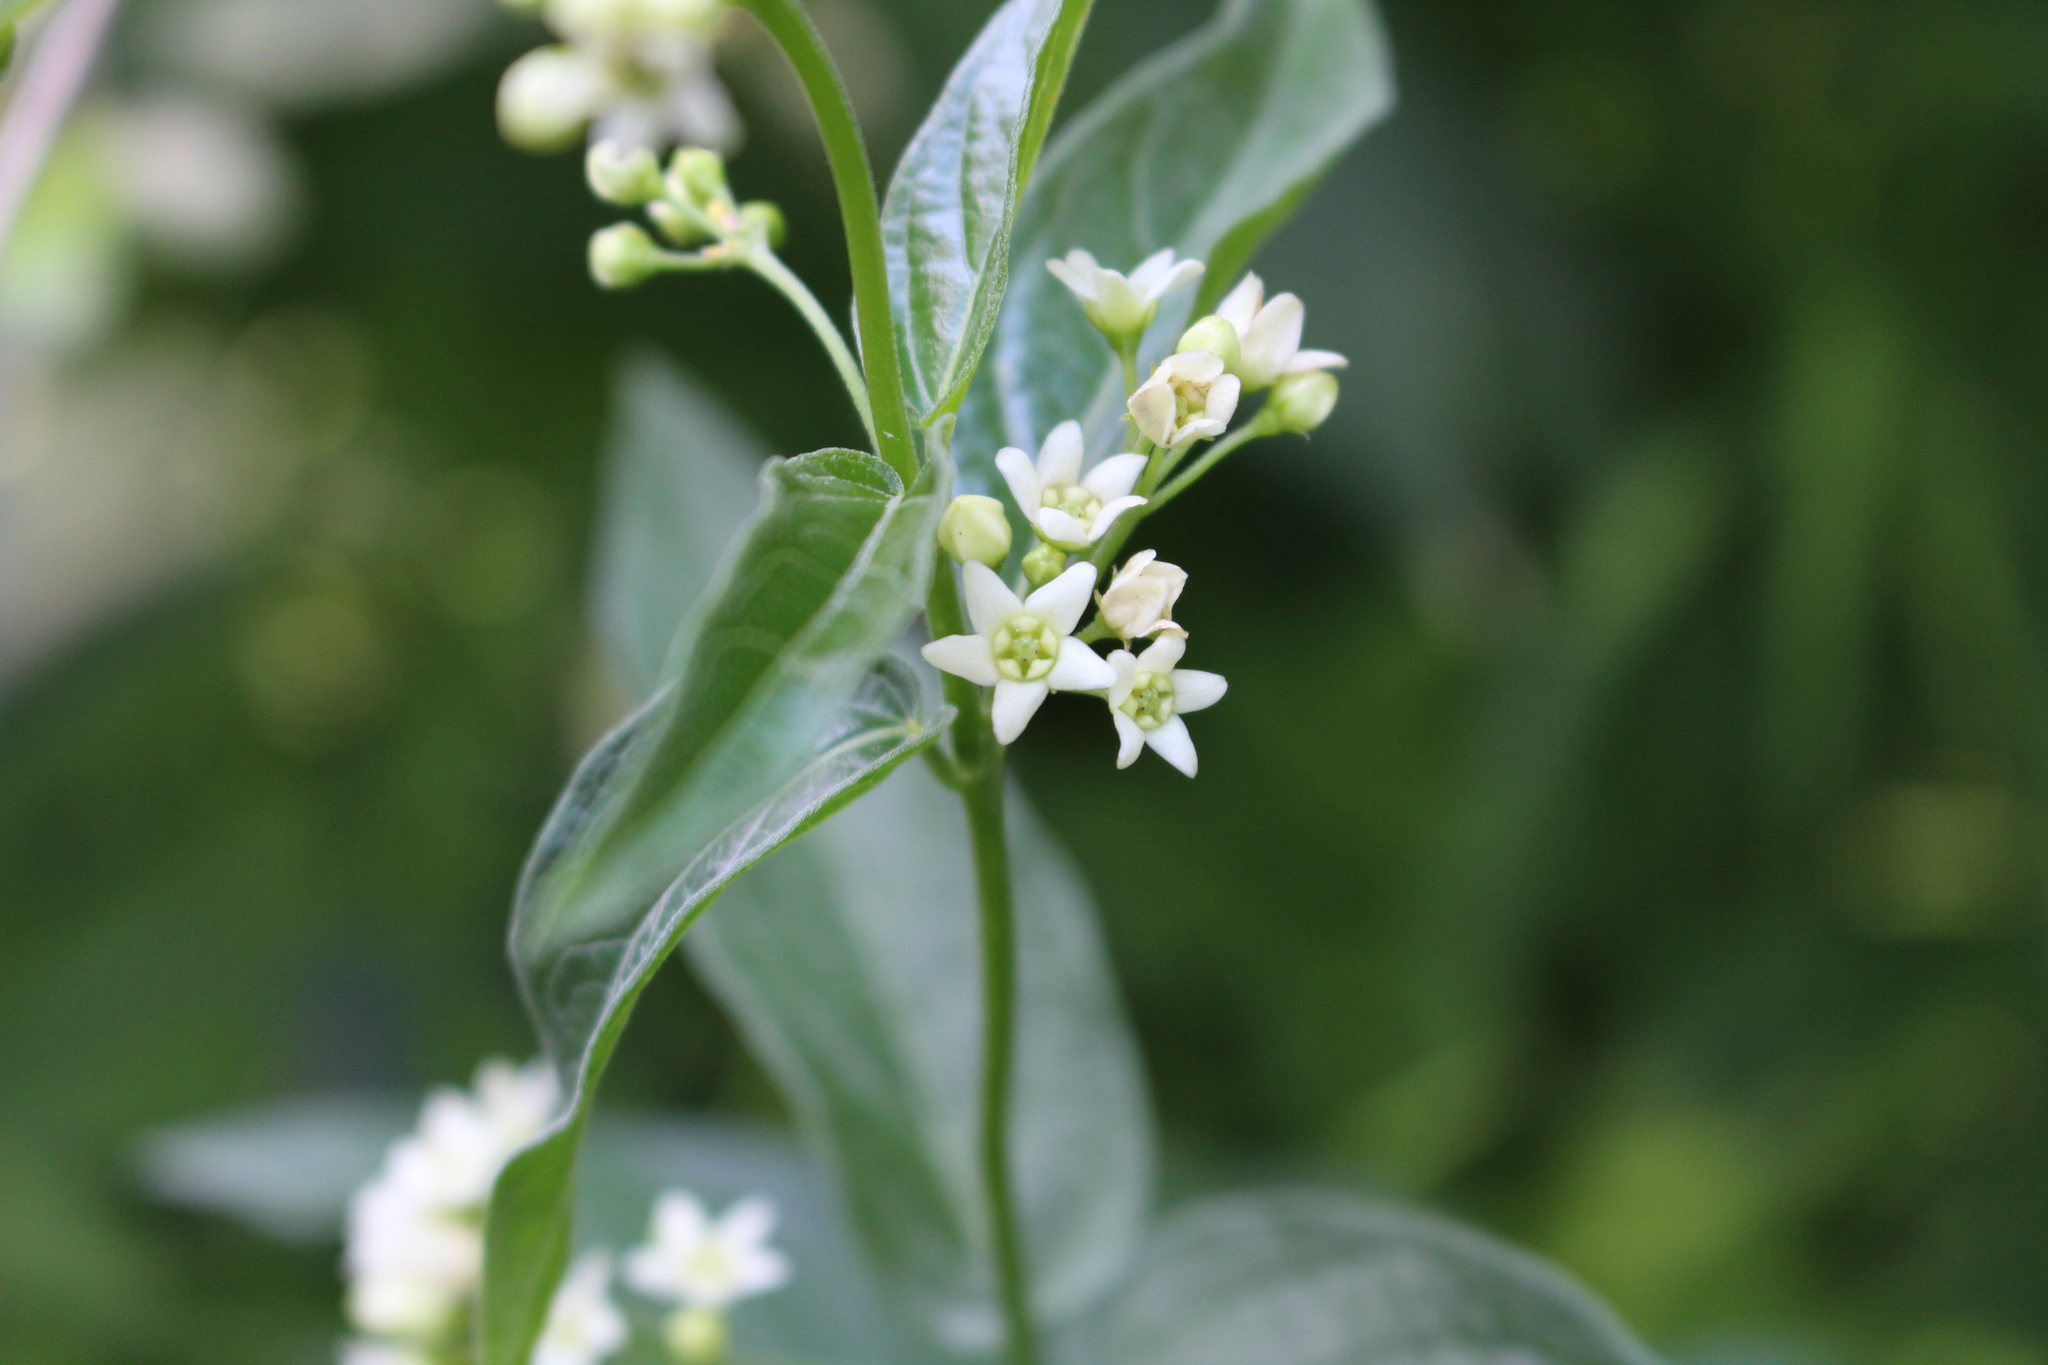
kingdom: Plantae
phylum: Tracheophyta
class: Magnoliopsida
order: Gentianales
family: Apocynaceae
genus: Vincetoxicum
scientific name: Vincetoxicum hirundinaria
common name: White swallowwort
